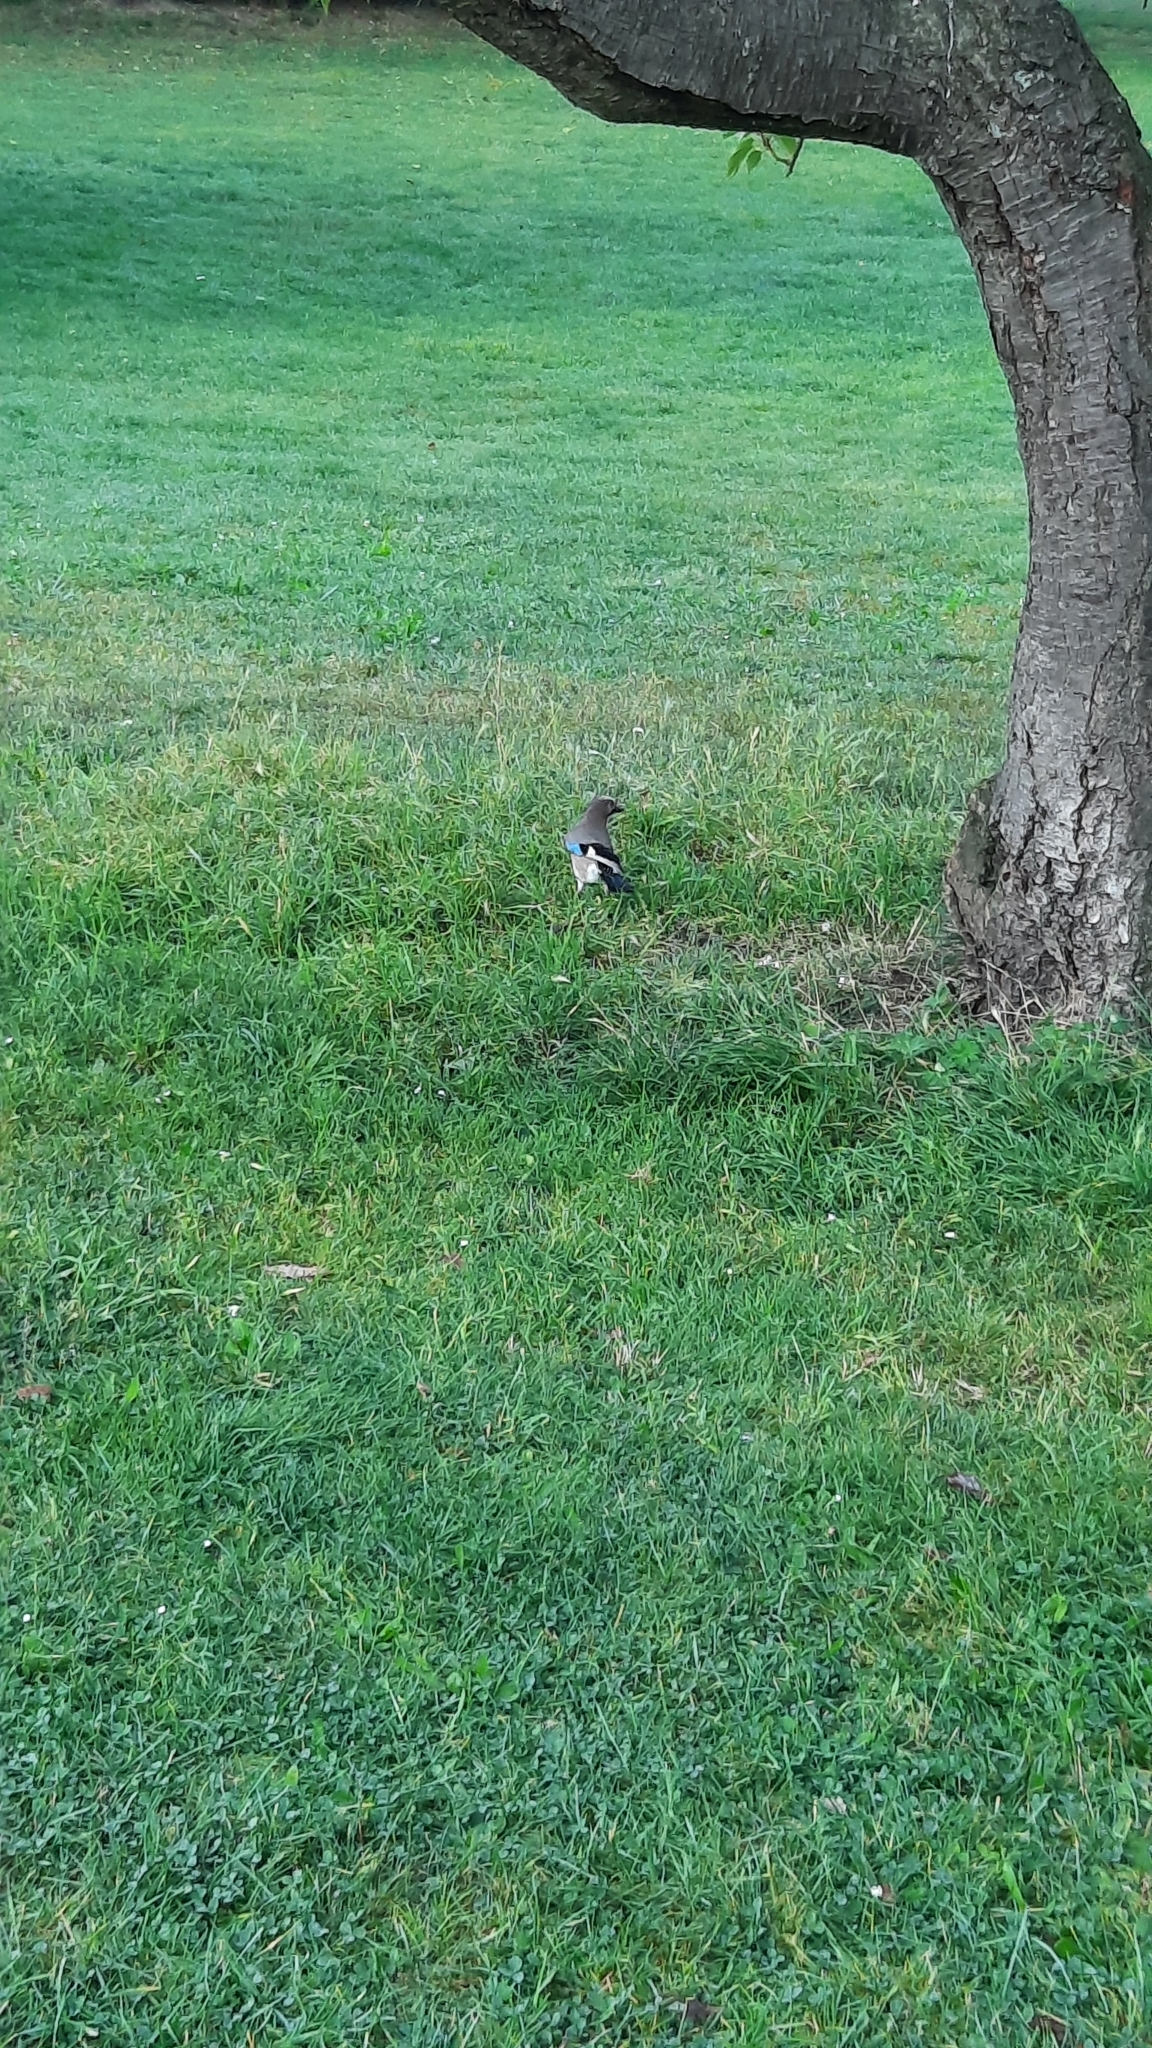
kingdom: Animalia
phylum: Chordata
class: Aves
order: Passeriformes
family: Corvidae
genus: Garrulus
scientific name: Garrulus glandarius
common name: Eurasian jay
